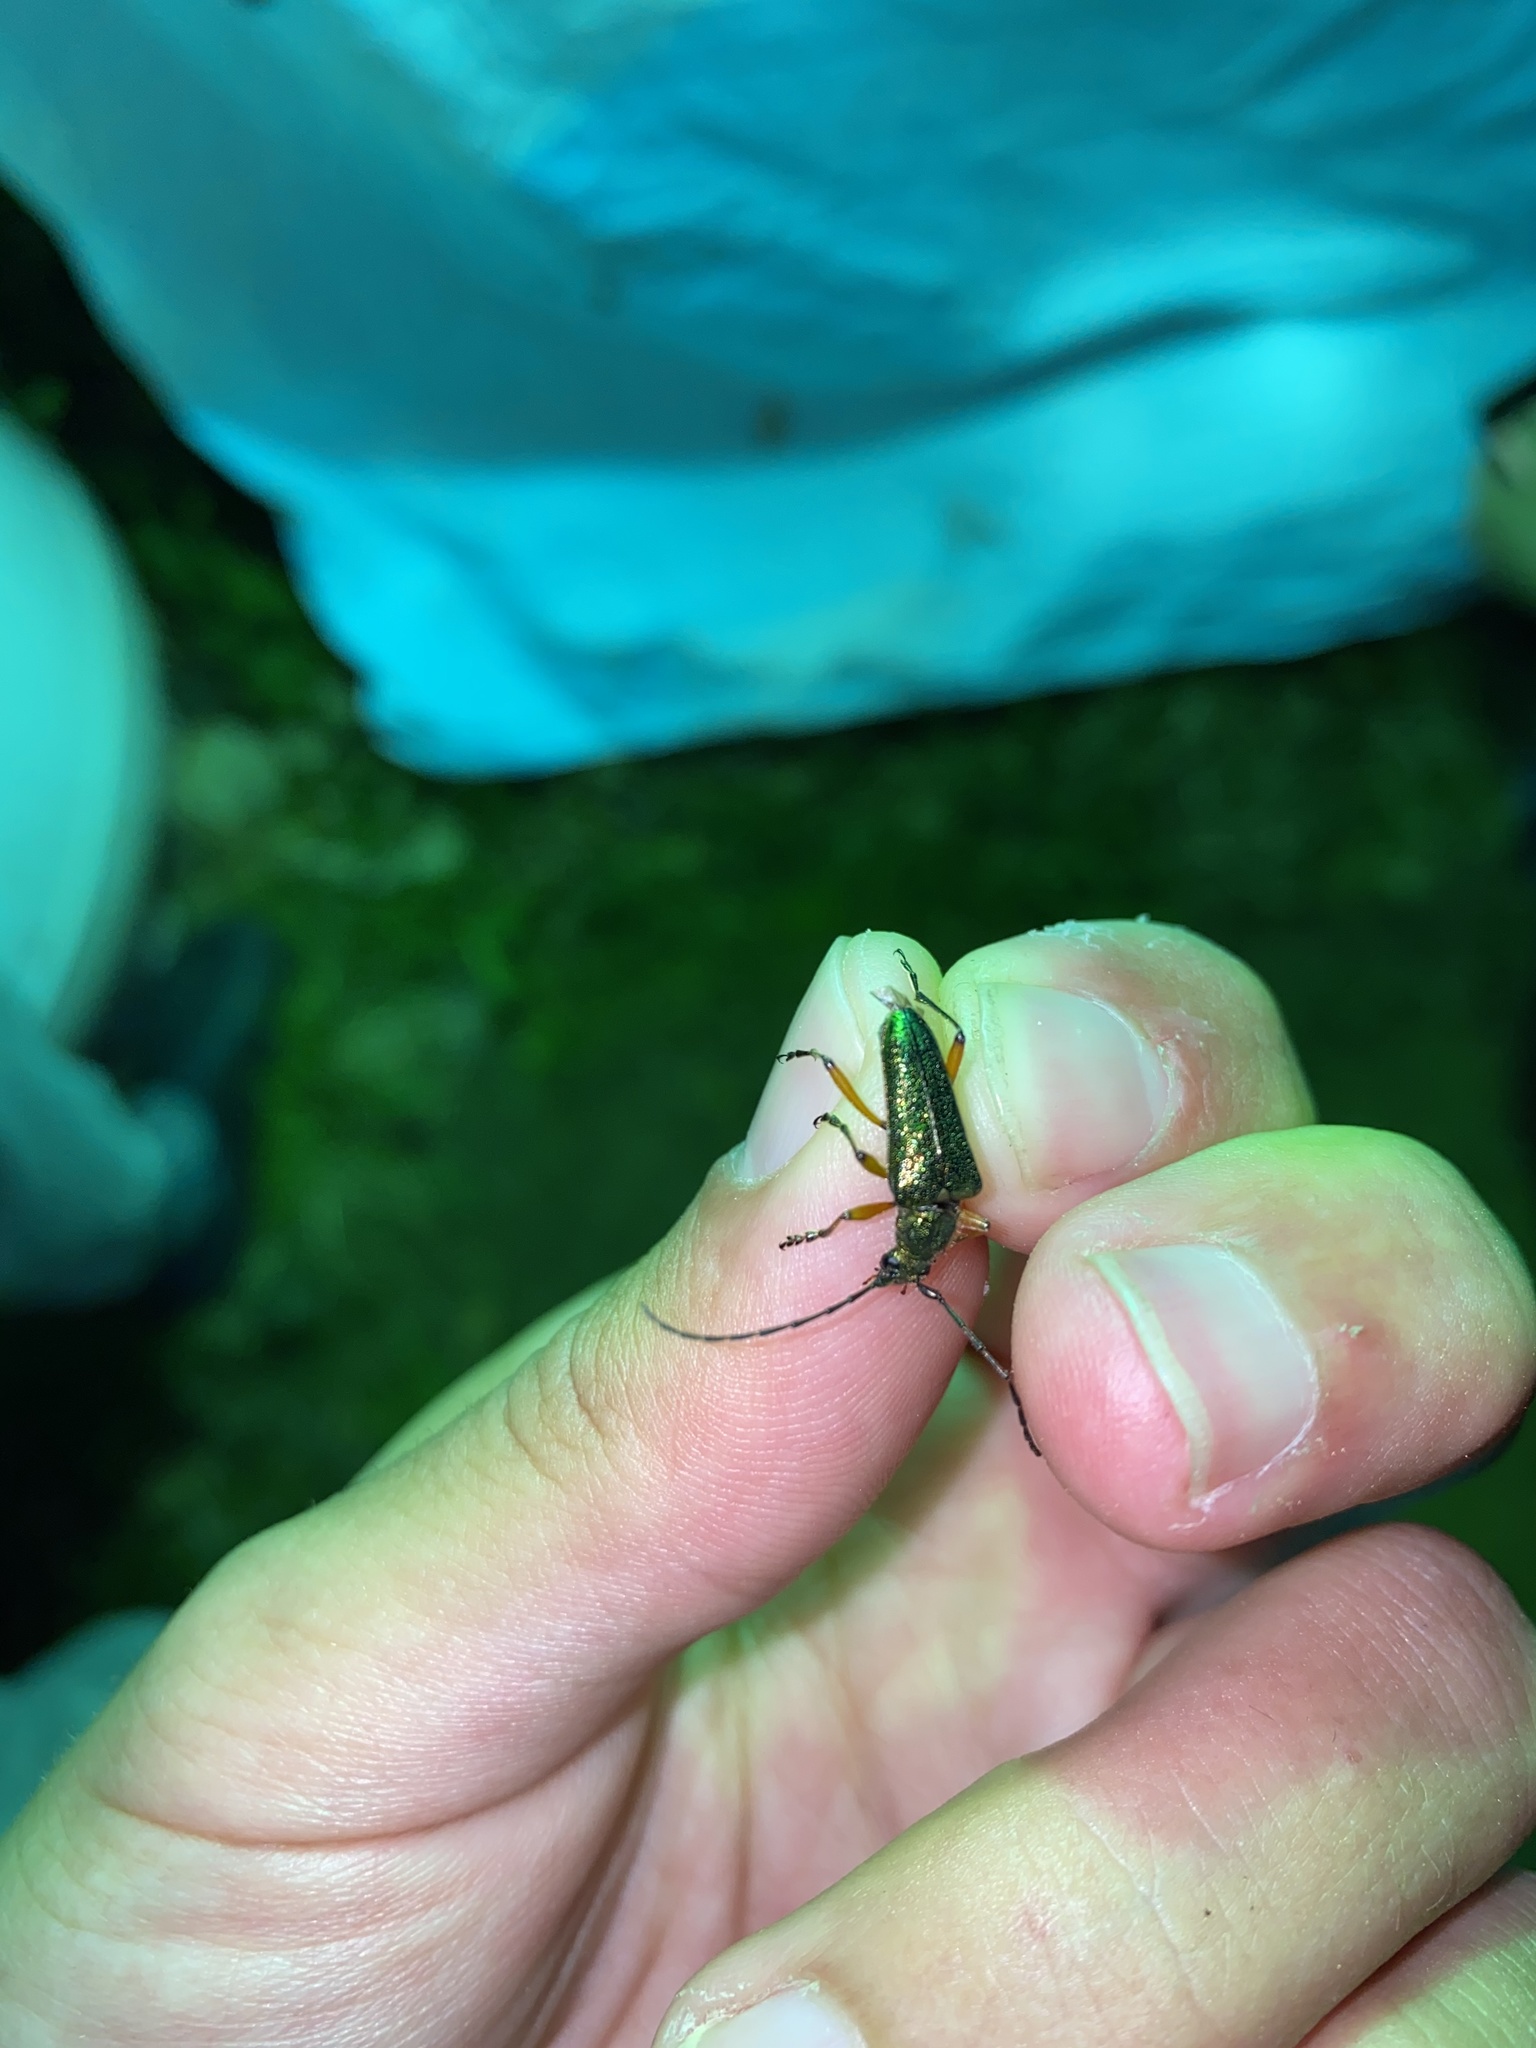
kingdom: Animalia
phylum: Arthropoda
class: Insecta
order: Coleoptera
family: Cerambycidae
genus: Anthophylax
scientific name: Anthophylax cyaneus
